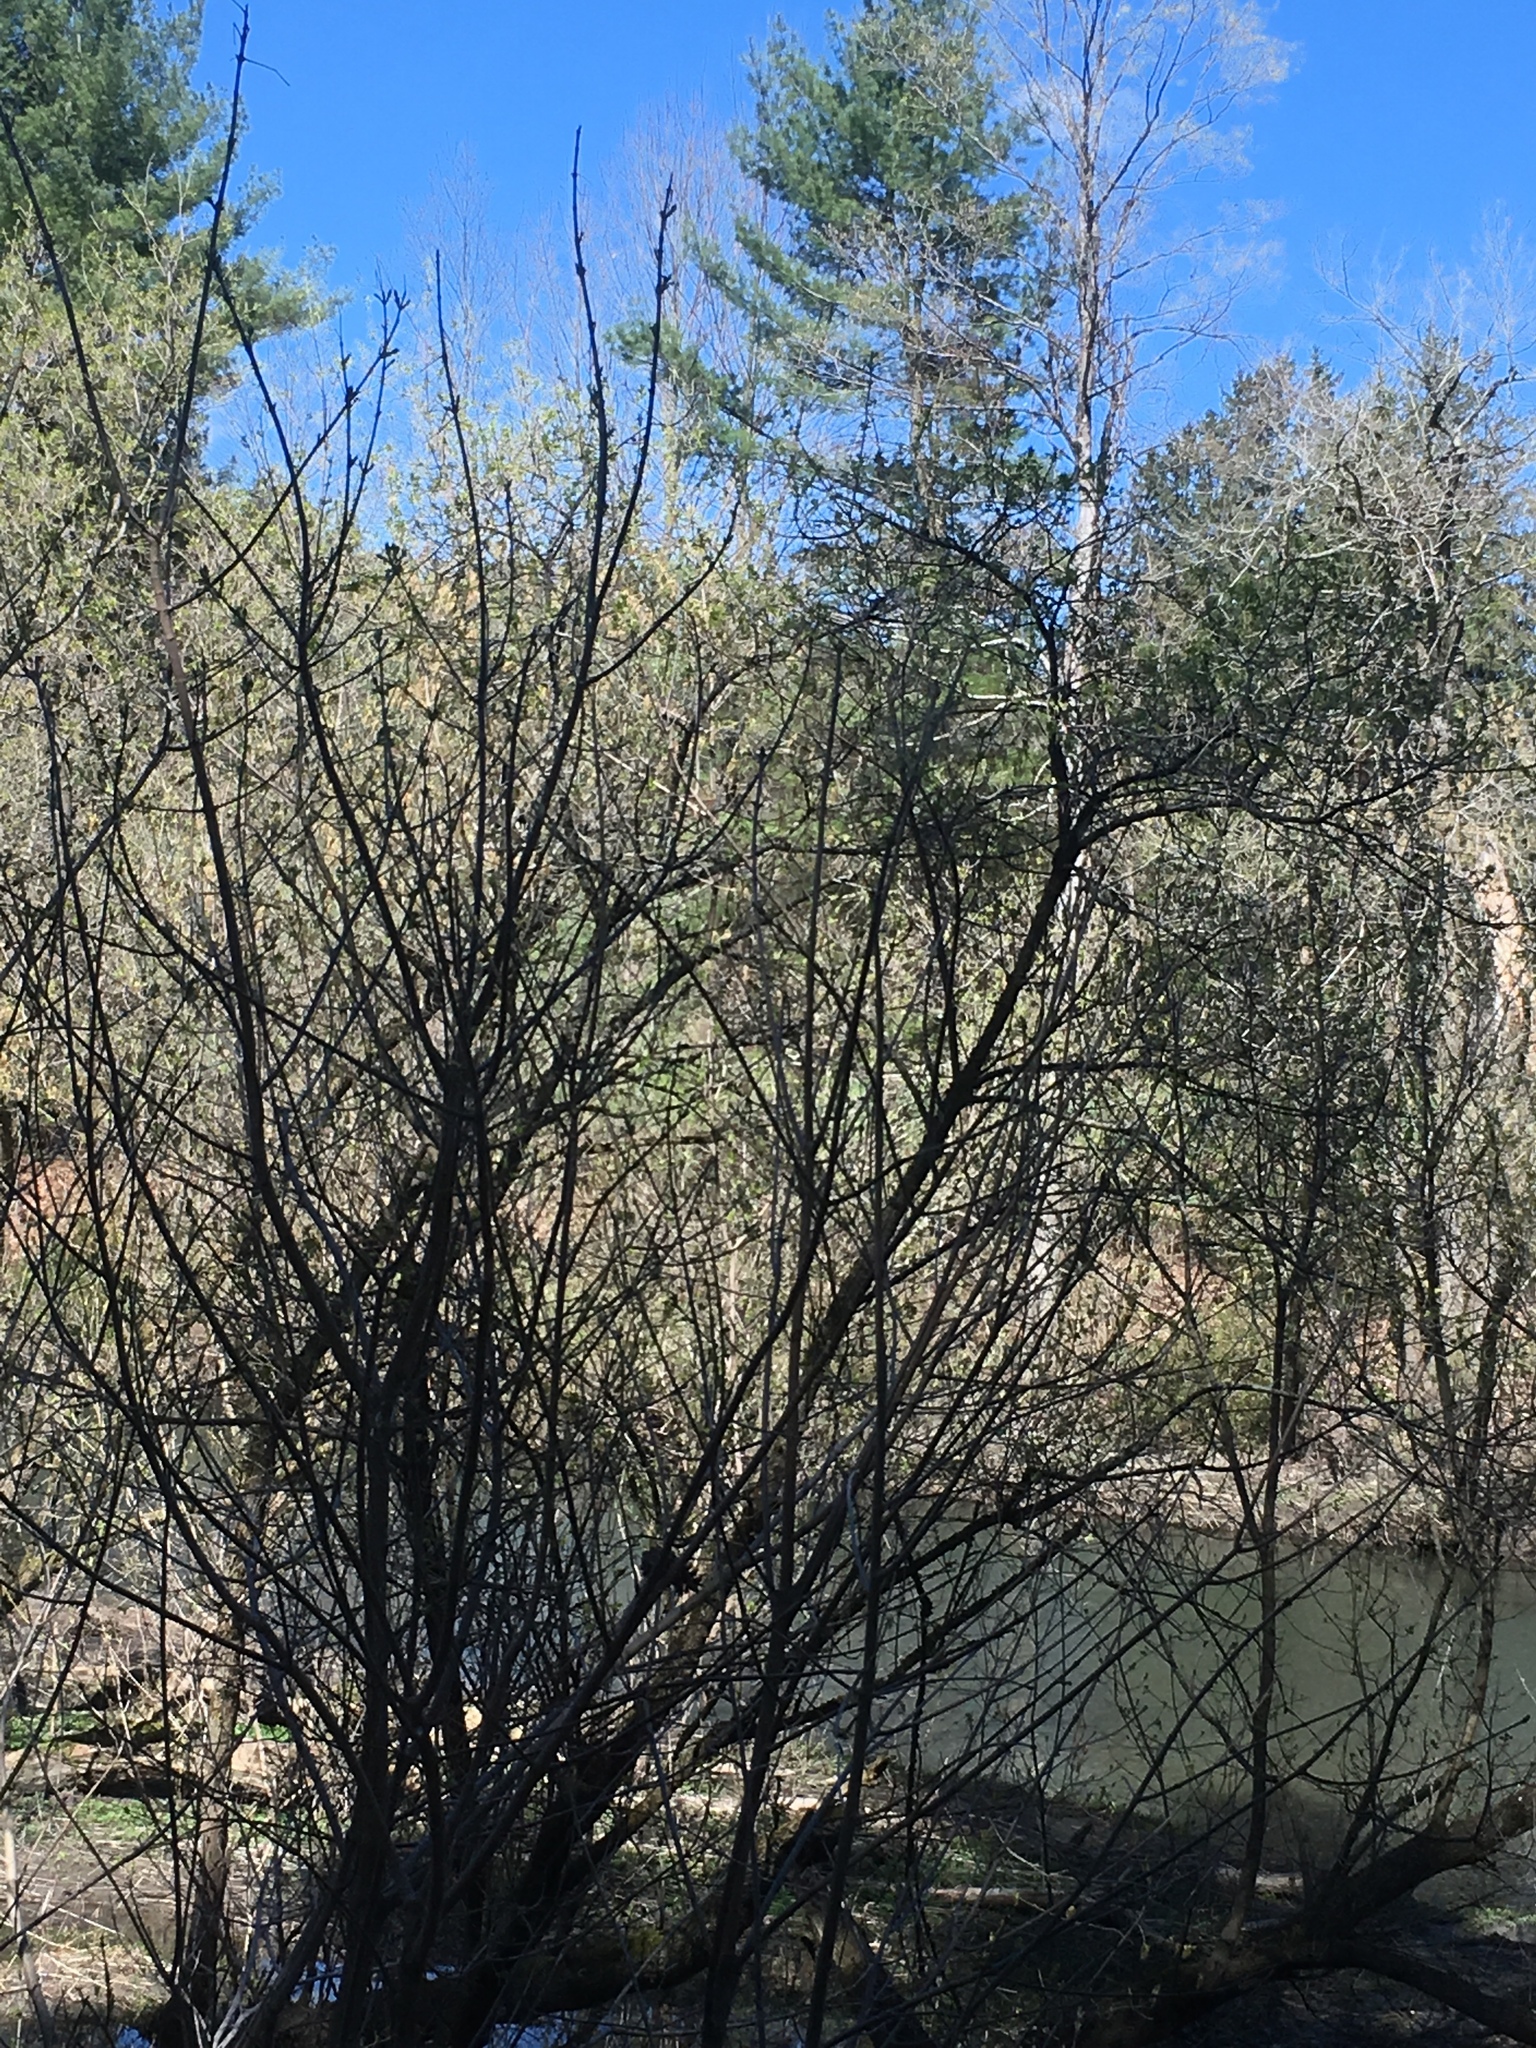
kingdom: Plantae
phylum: Tracheophyta
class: Pinopsida
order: Pinales
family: Pinaceae
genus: Pinus
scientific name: Pinus strobus
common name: Weymouth pine
